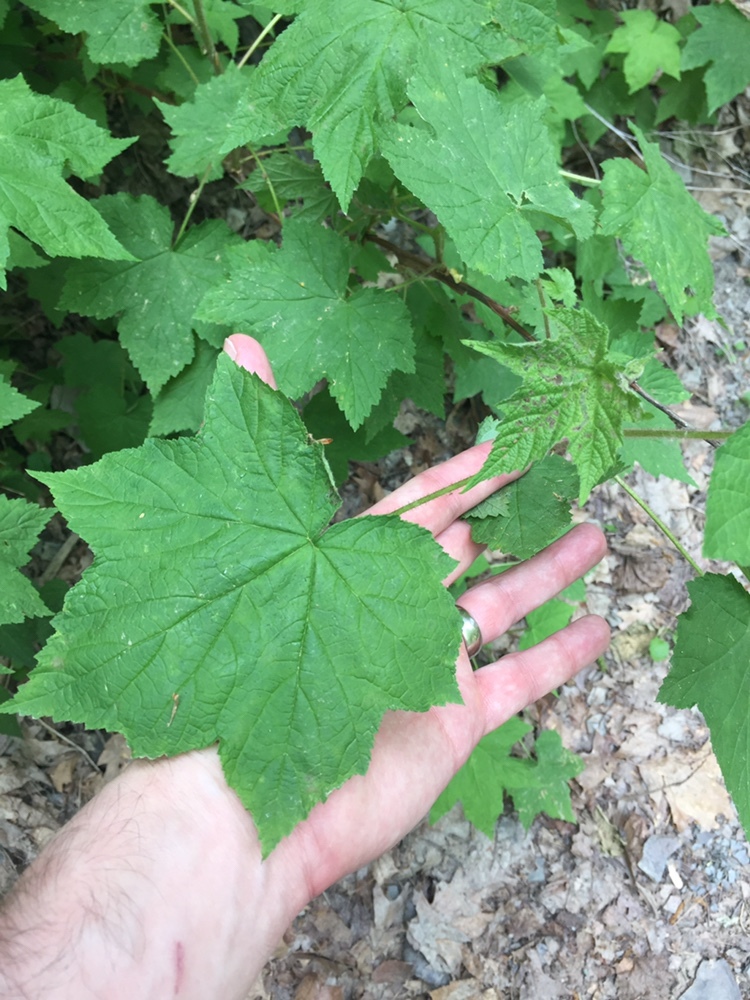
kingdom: Plantae
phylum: Tracheophyta
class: Magnoliopsida
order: Rosales
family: Rosaceae
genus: Rubus
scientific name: Rubus odoratus
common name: Purple-flowered raspberry
